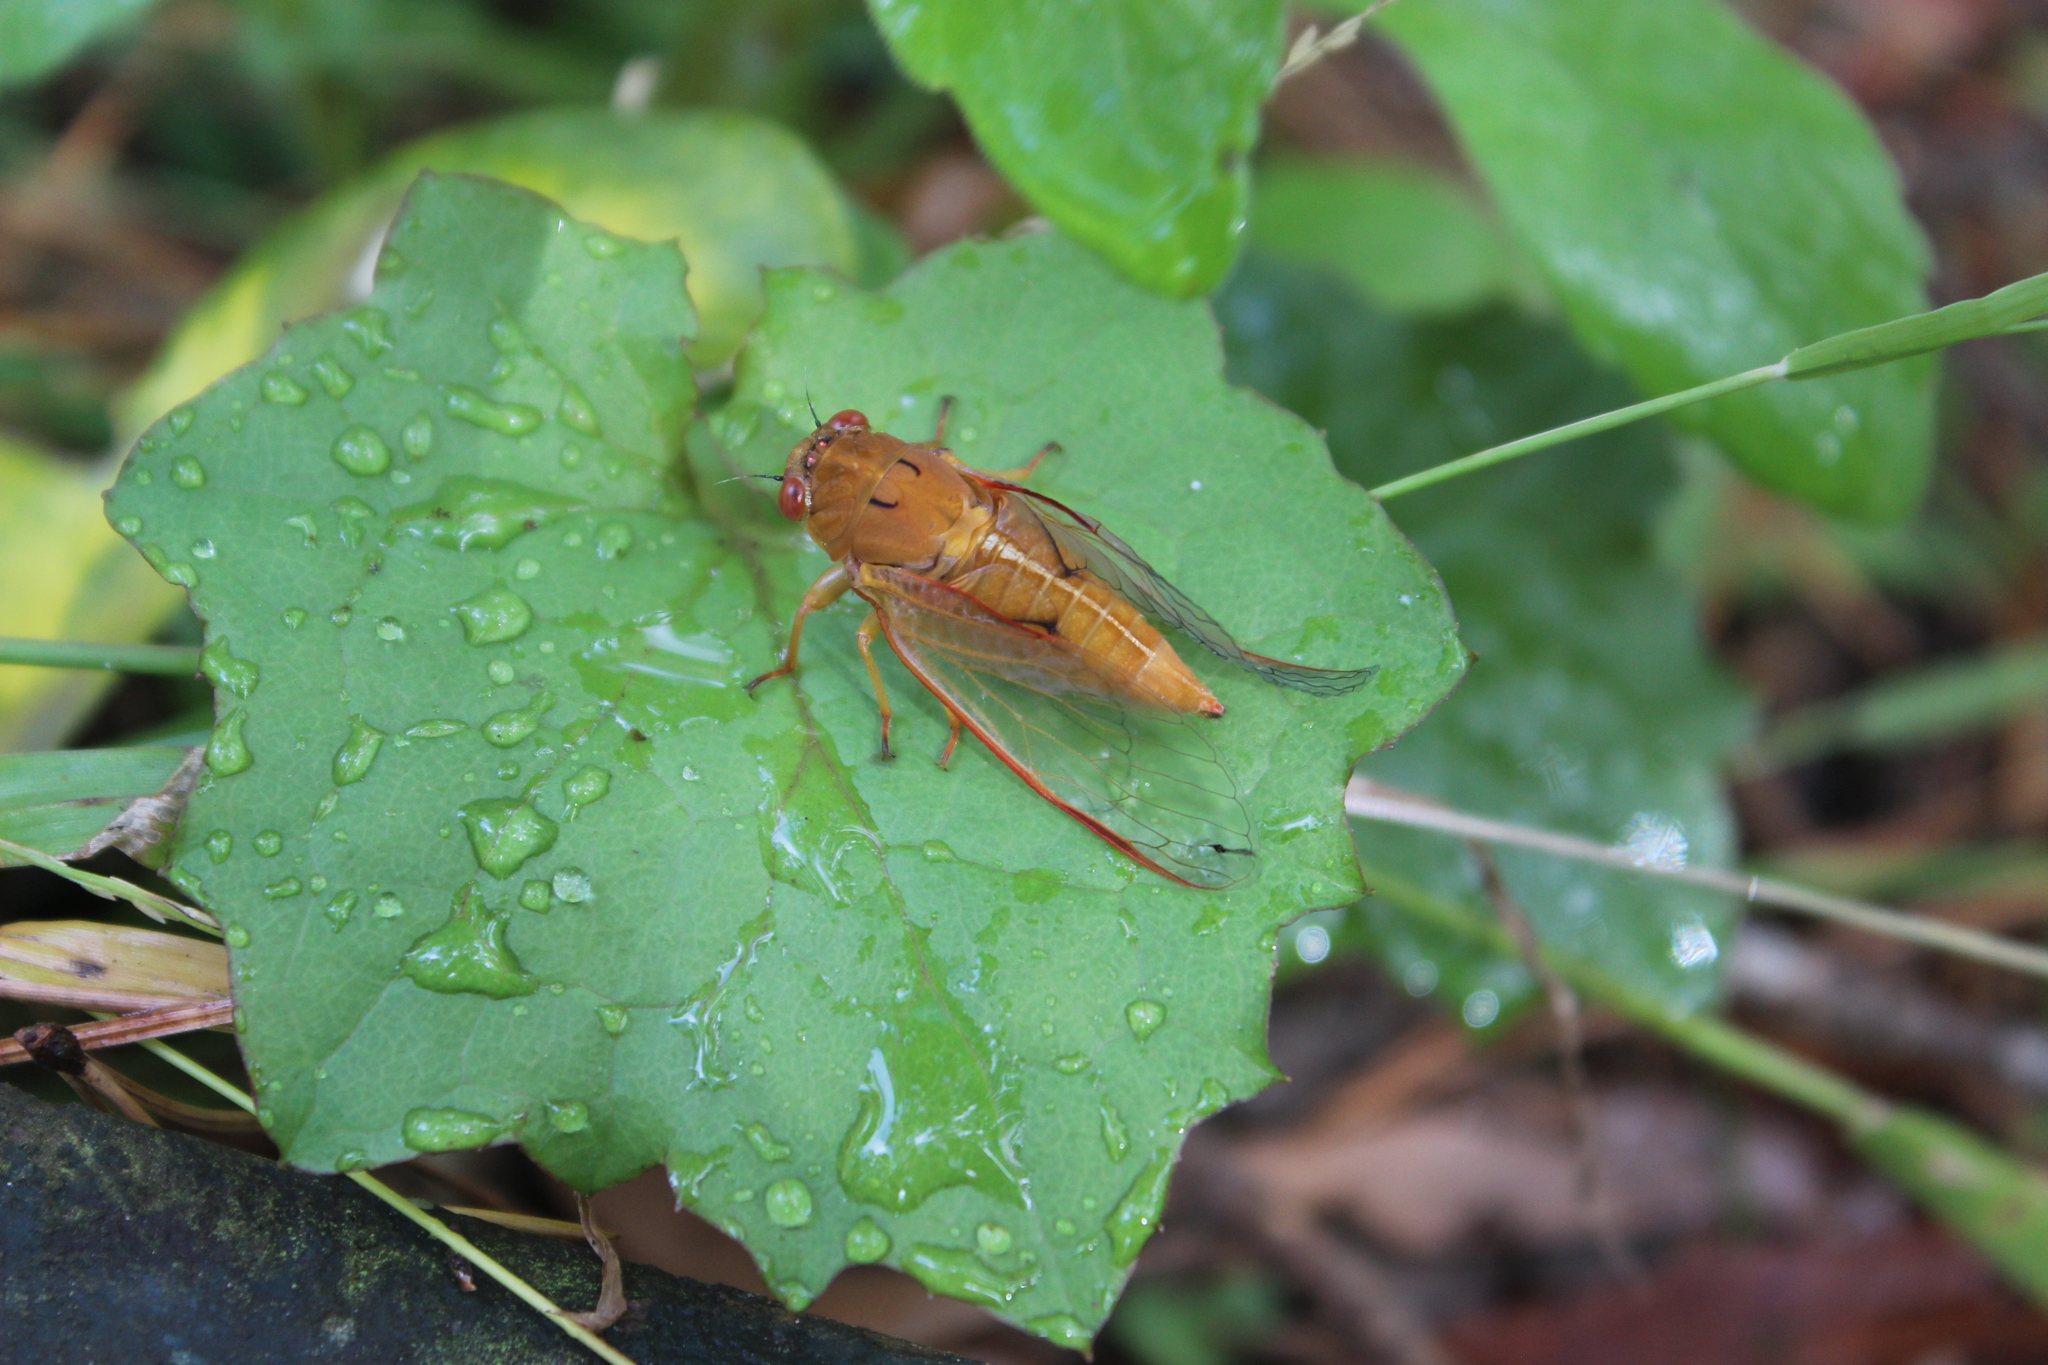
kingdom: Animalia
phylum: Arthropoda
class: Insecta
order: Hemiptera
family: Cicadidae
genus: Kikihia
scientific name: Kikihia ochrina
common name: April green cicada
